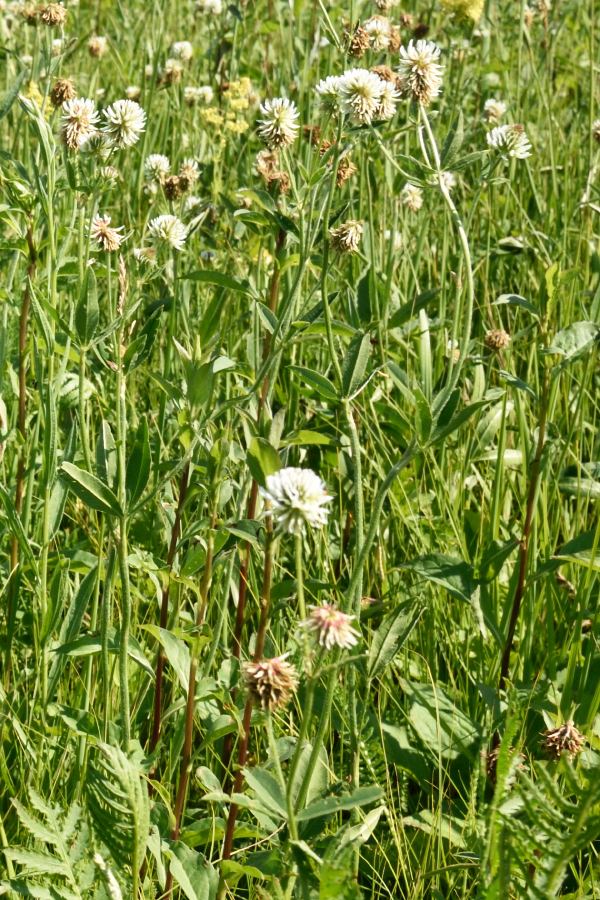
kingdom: Plantae
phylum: Tracheophyta
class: Magnoliopsida
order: Fabales
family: Fabaceae
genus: Trifolium
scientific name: Trifolium montanum
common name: Mountain clover
